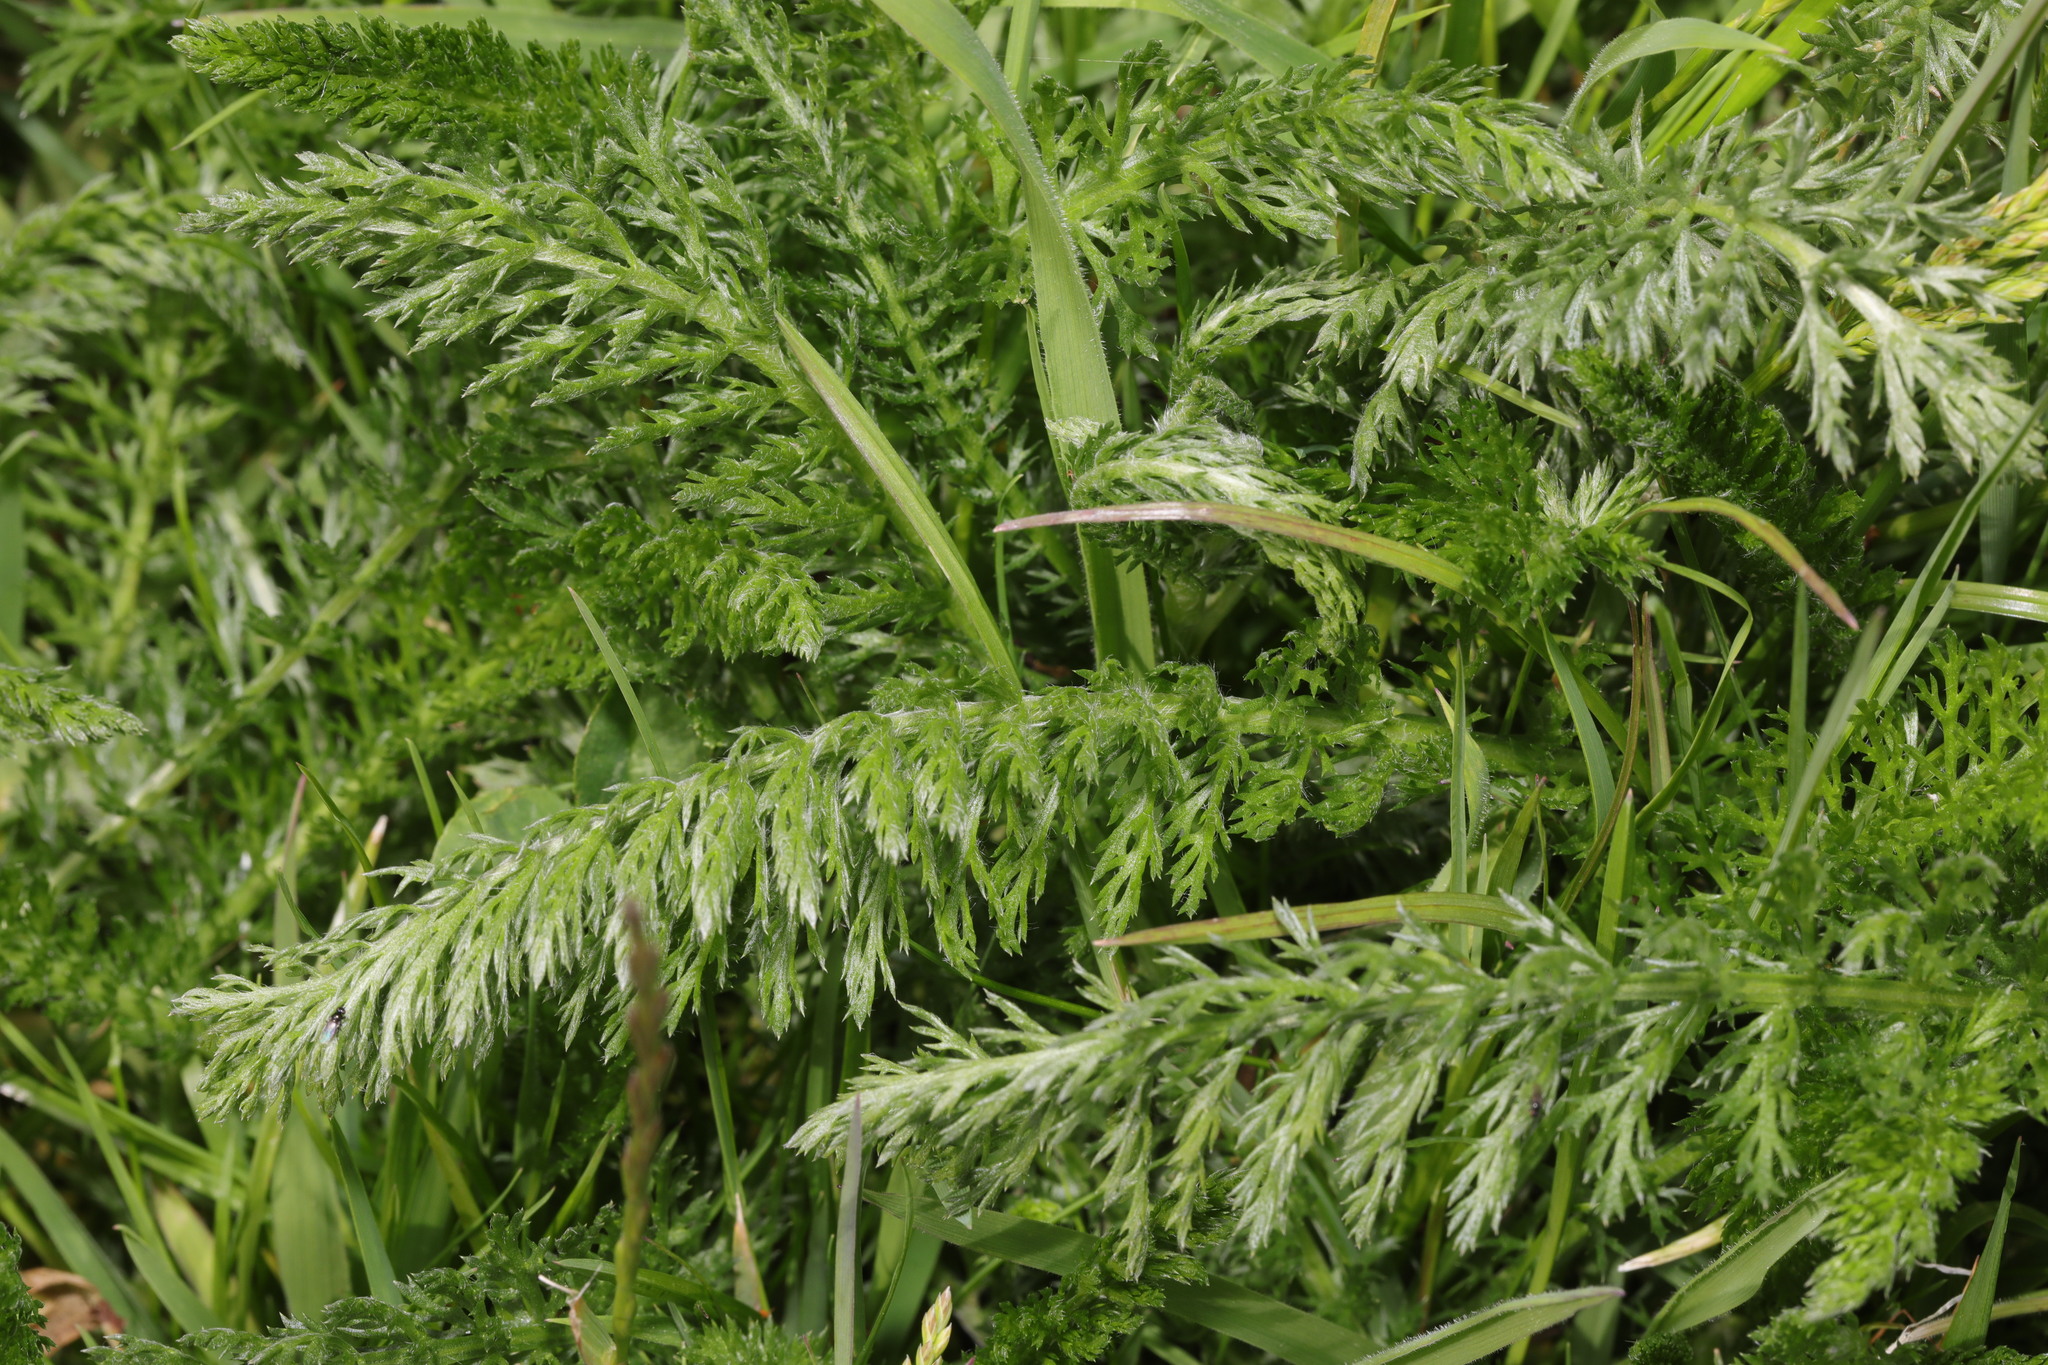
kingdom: Plantae
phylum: Tracheophyta
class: Magnoliopsida
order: Asterales
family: Asteraceae
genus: Achillea
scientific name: Achillea millefolium
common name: Yarrow
